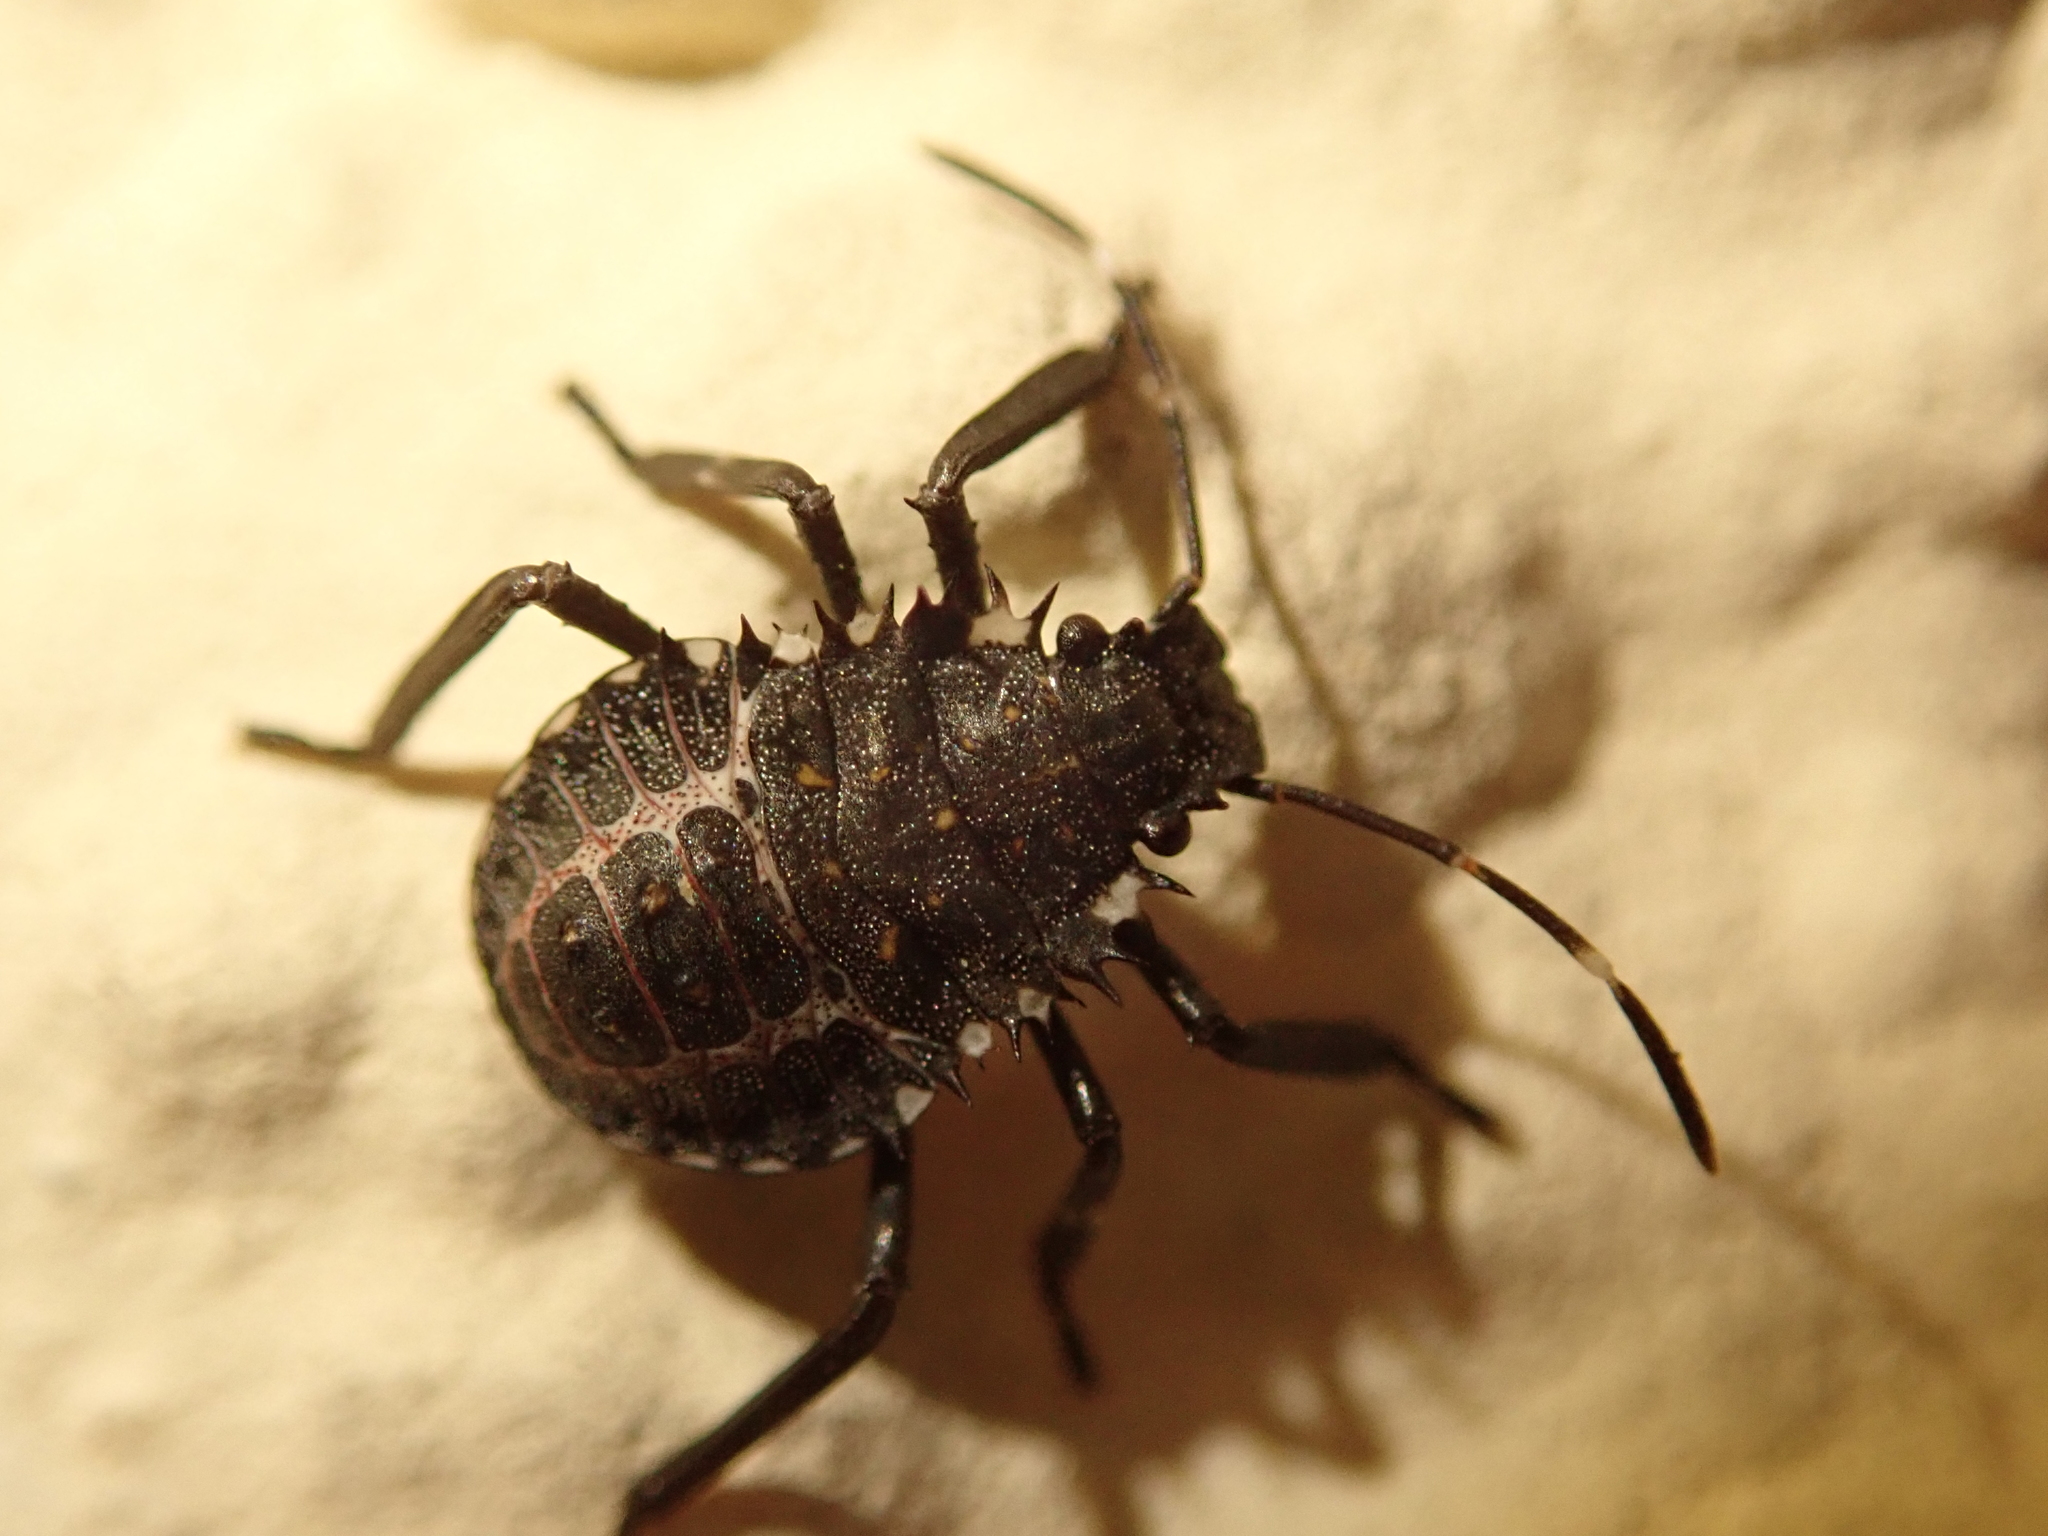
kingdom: Animalia
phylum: Arthropoda
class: Insecta
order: Hemiptera
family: Pentatomidae
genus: Halyomorpha
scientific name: Halyomorpha halys
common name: Brown marmorated stink bug
